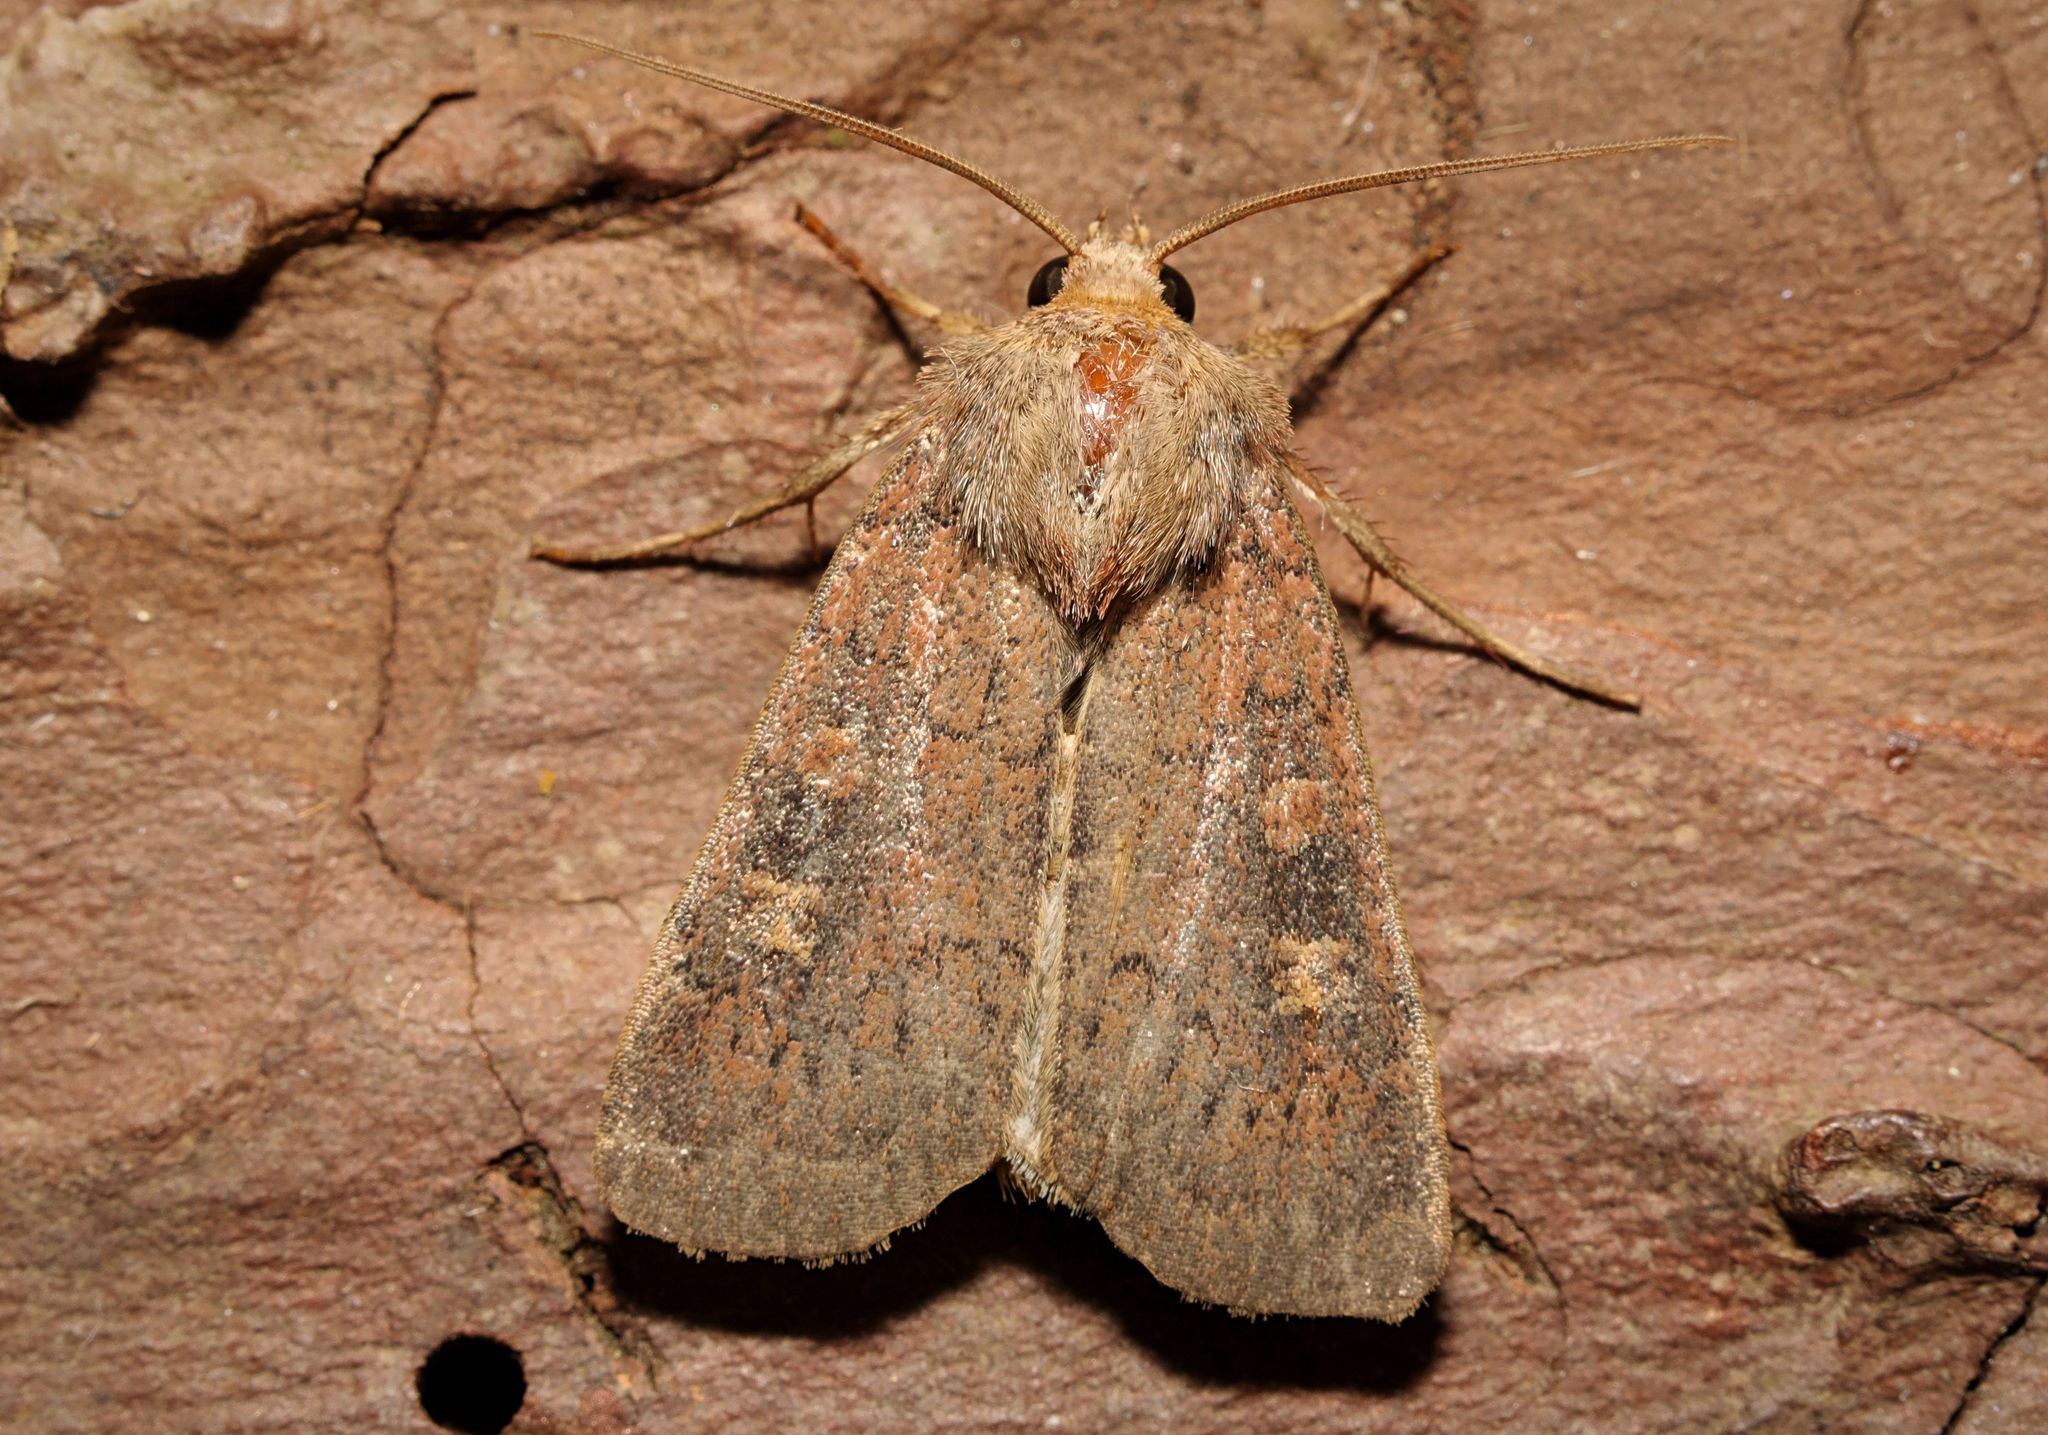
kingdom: Animalia
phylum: Arthropoda
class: Insecta
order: Lepidoptera
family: Noctuidae
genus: Xestia
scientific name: Xestia xanthographa
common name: Square-spot rustic
